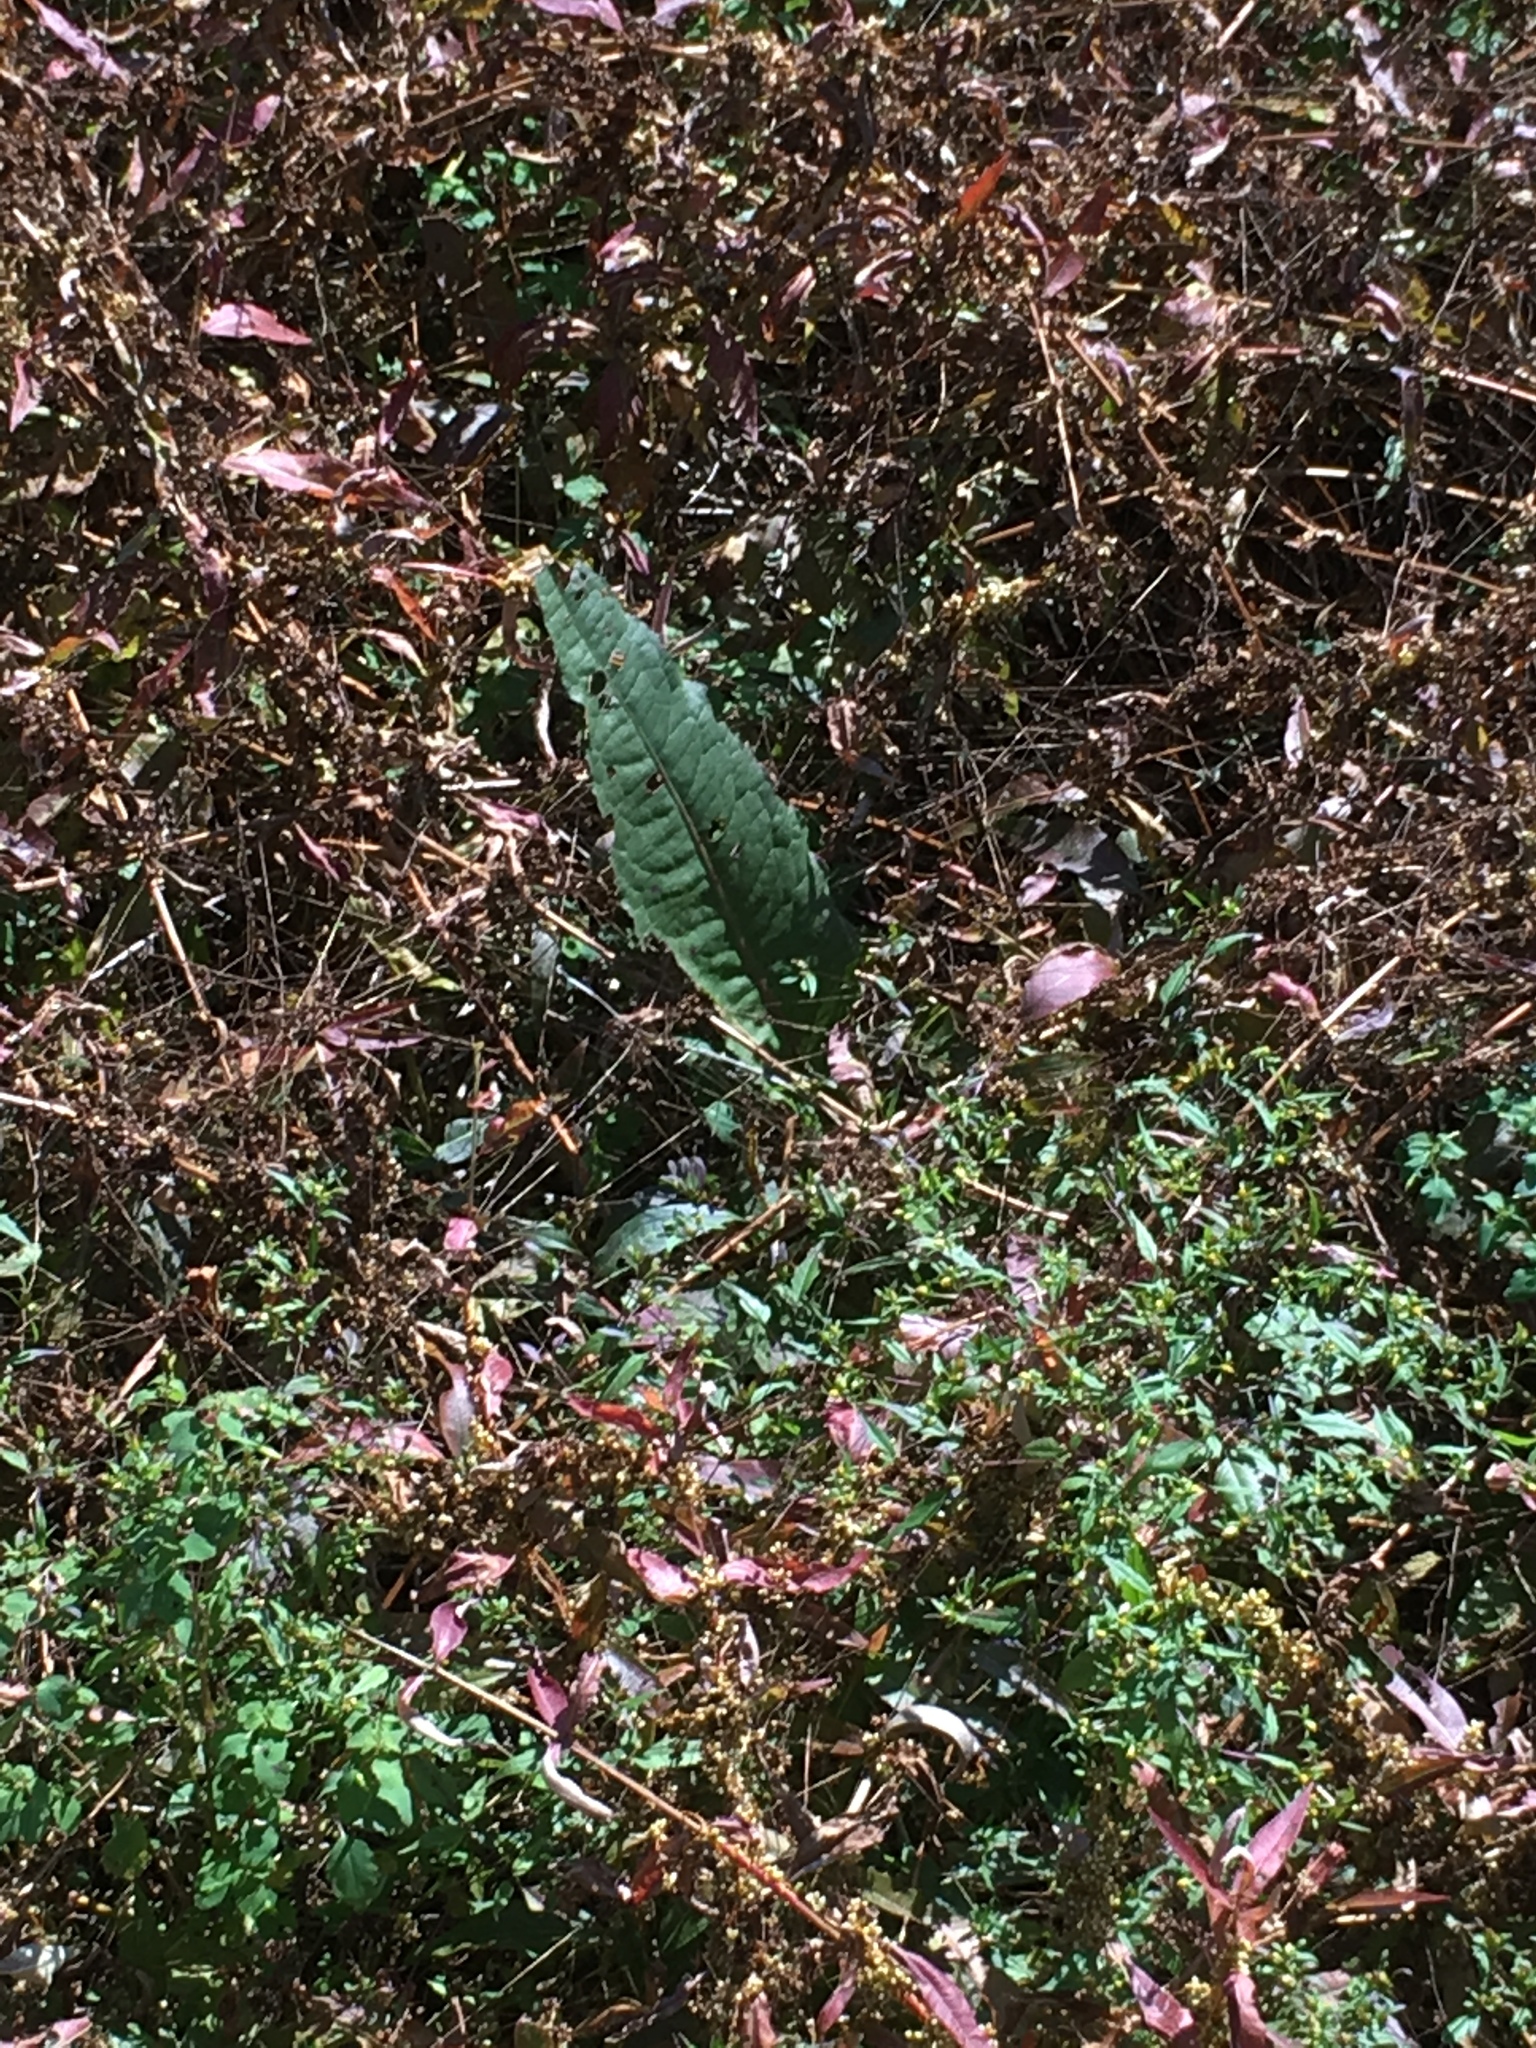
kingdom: Plantae
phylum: Tracheophyta
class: Magnoliopsida
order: Caryophyllales
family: Polygonaceae
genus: Rumex
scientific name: Rumex britannica
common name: British dock
